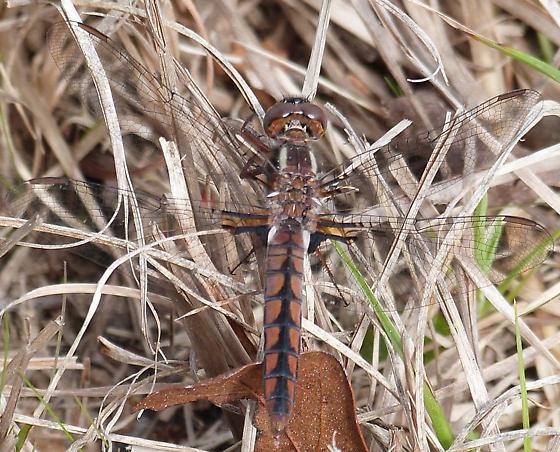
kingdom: Animalia
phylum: Arthropoda
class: Insecta
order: Odonata
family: Libellulidae
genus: Ladona
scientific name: Ladona deplanata
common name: Blue corporal
